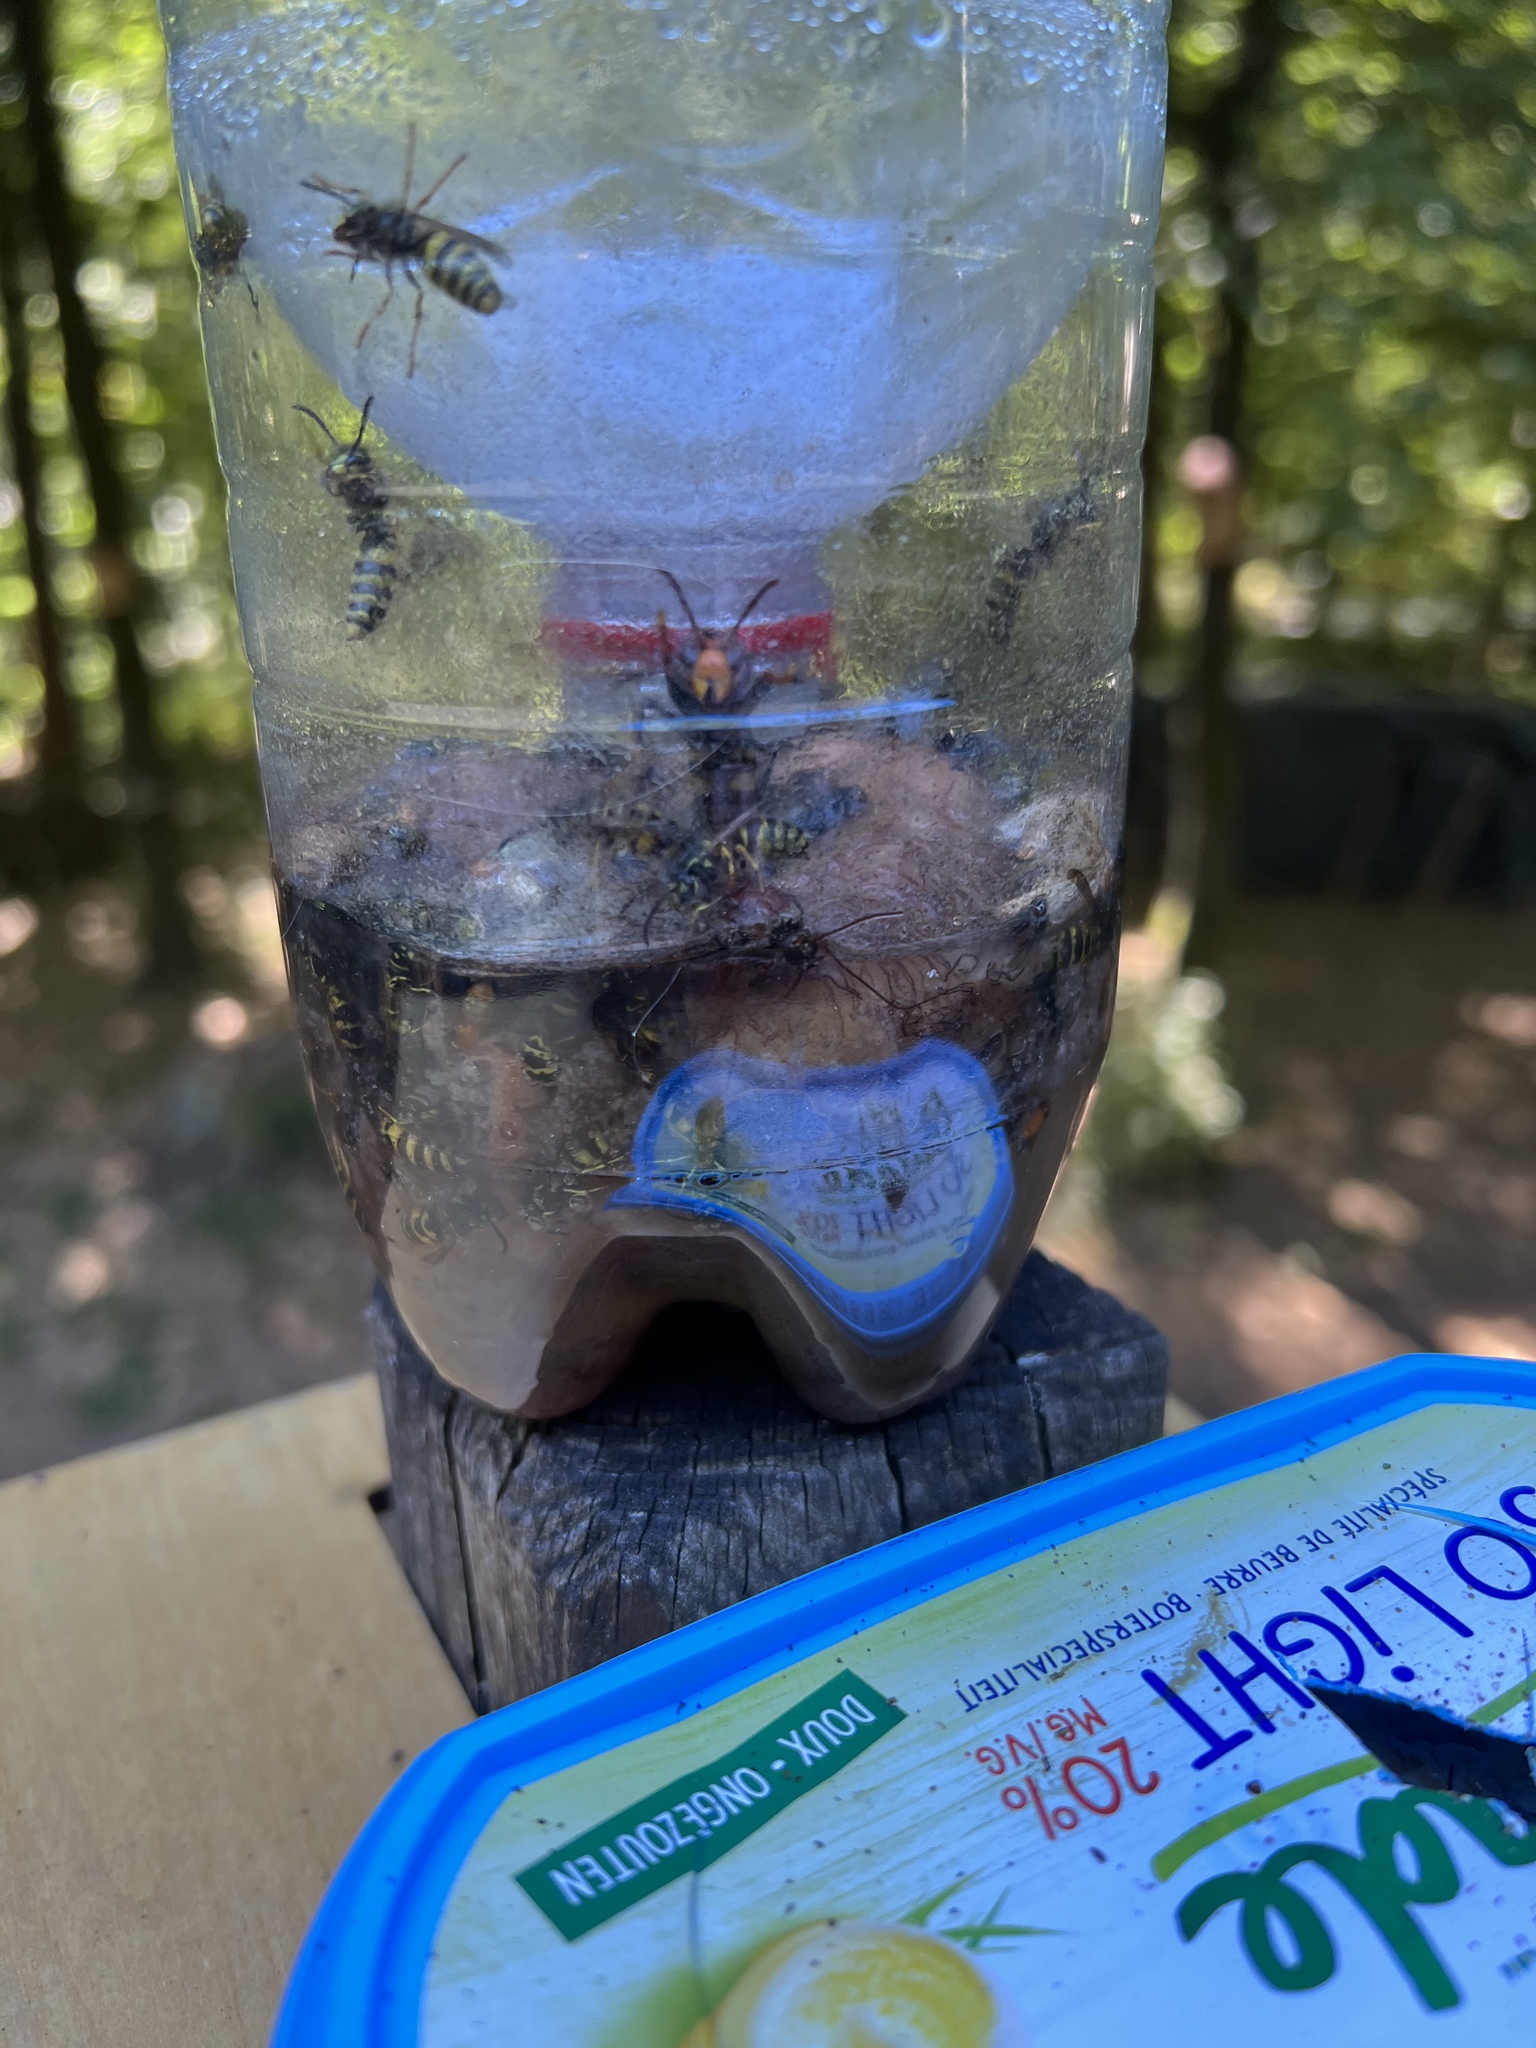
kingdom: Animalia
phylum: Arthropoda
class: Insecta
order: Hymenoptera
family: Vespidae
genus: Vespa
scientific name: Vespa velutina
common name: Asian hornet
